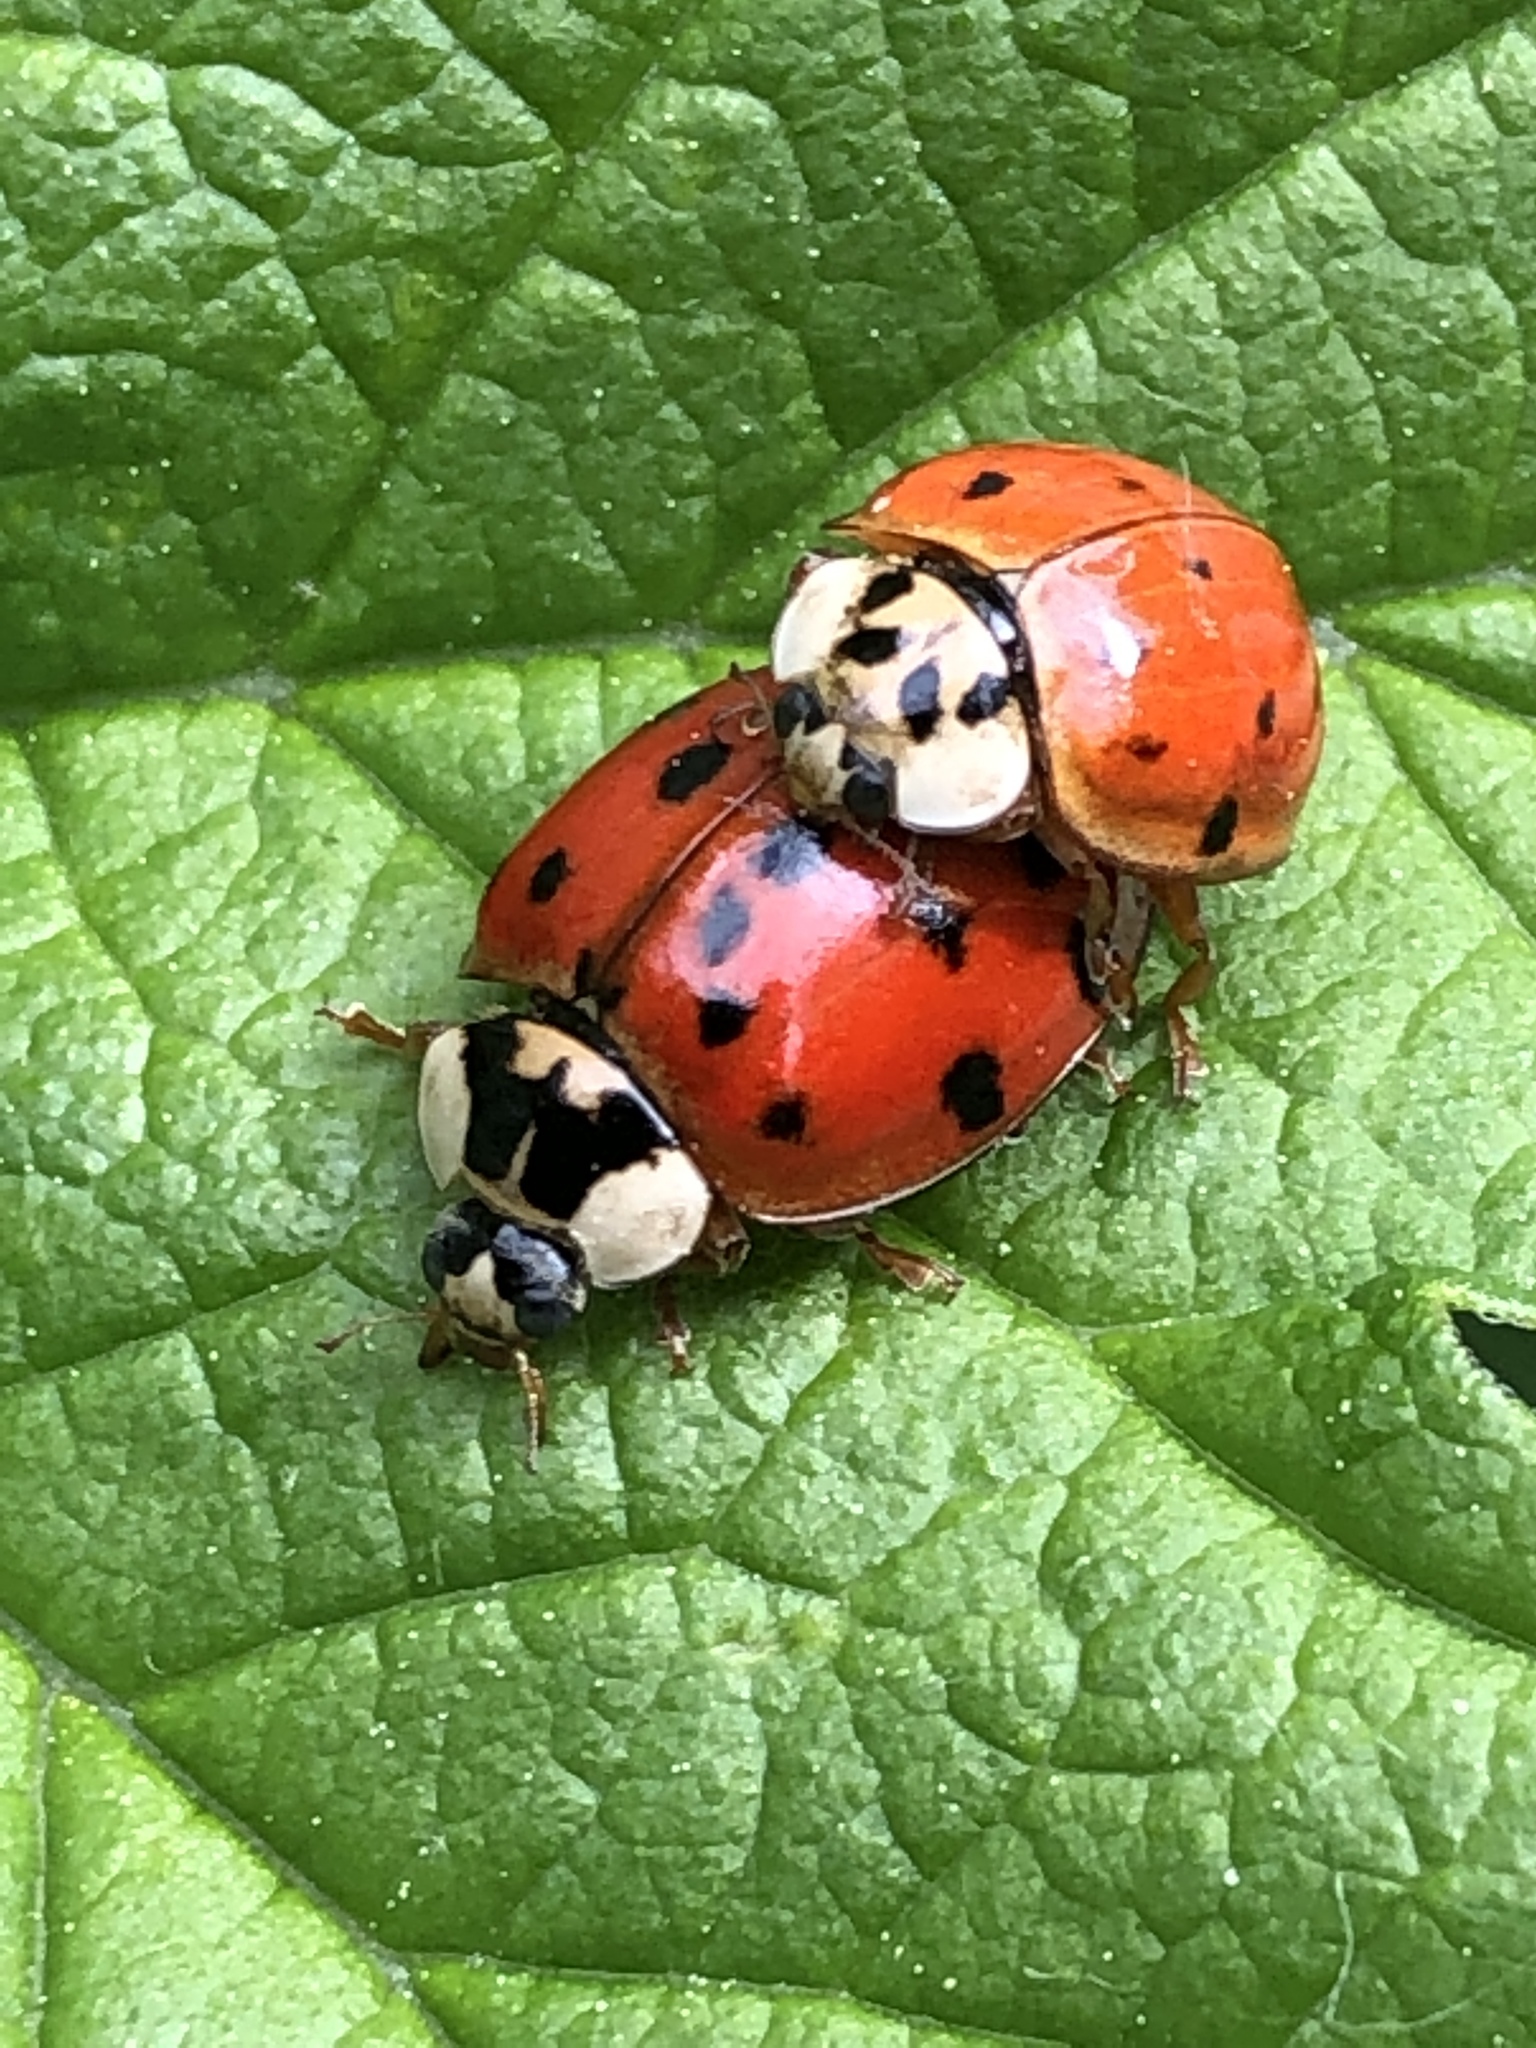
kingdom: Animalia
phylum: Arthropoda
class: Insecta
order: Coleoptera
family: Coccinellidae
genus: Harmonia
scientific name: Harmonia axyridis
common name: Harlequin ladybird
